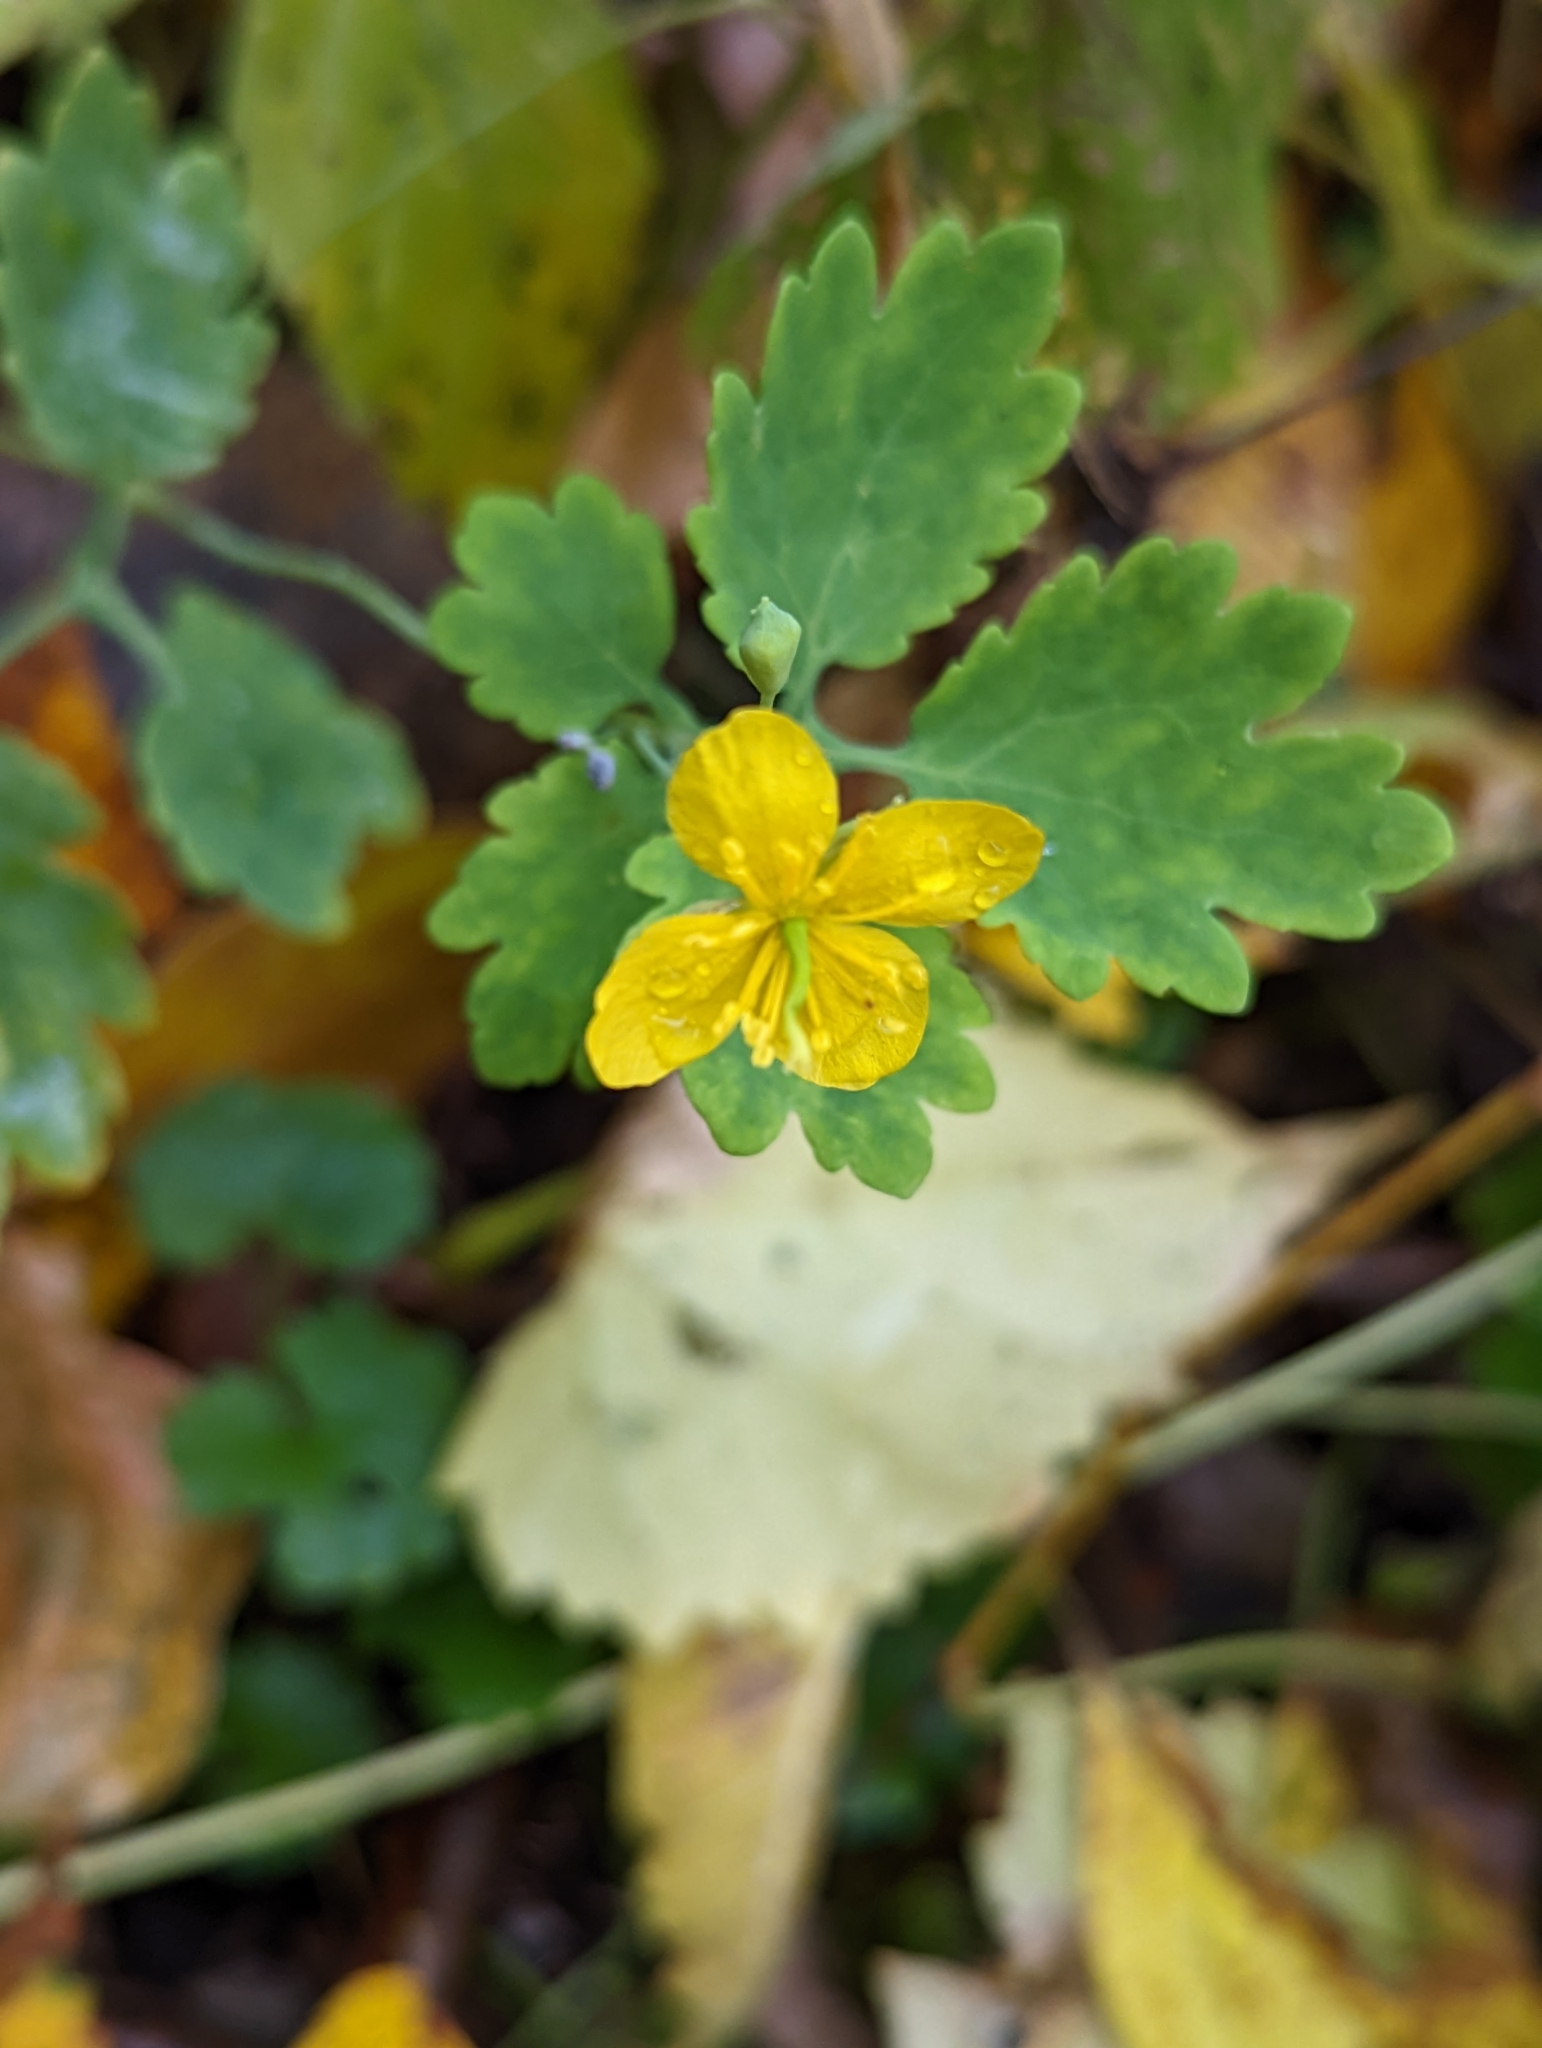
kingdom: Plantae
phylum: Tracheophyta
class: Magnoliopsida
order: Ranunculales
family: Papaveraceae
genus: Chelidonium
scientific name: Chelidonium majus
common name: Greater celandine
